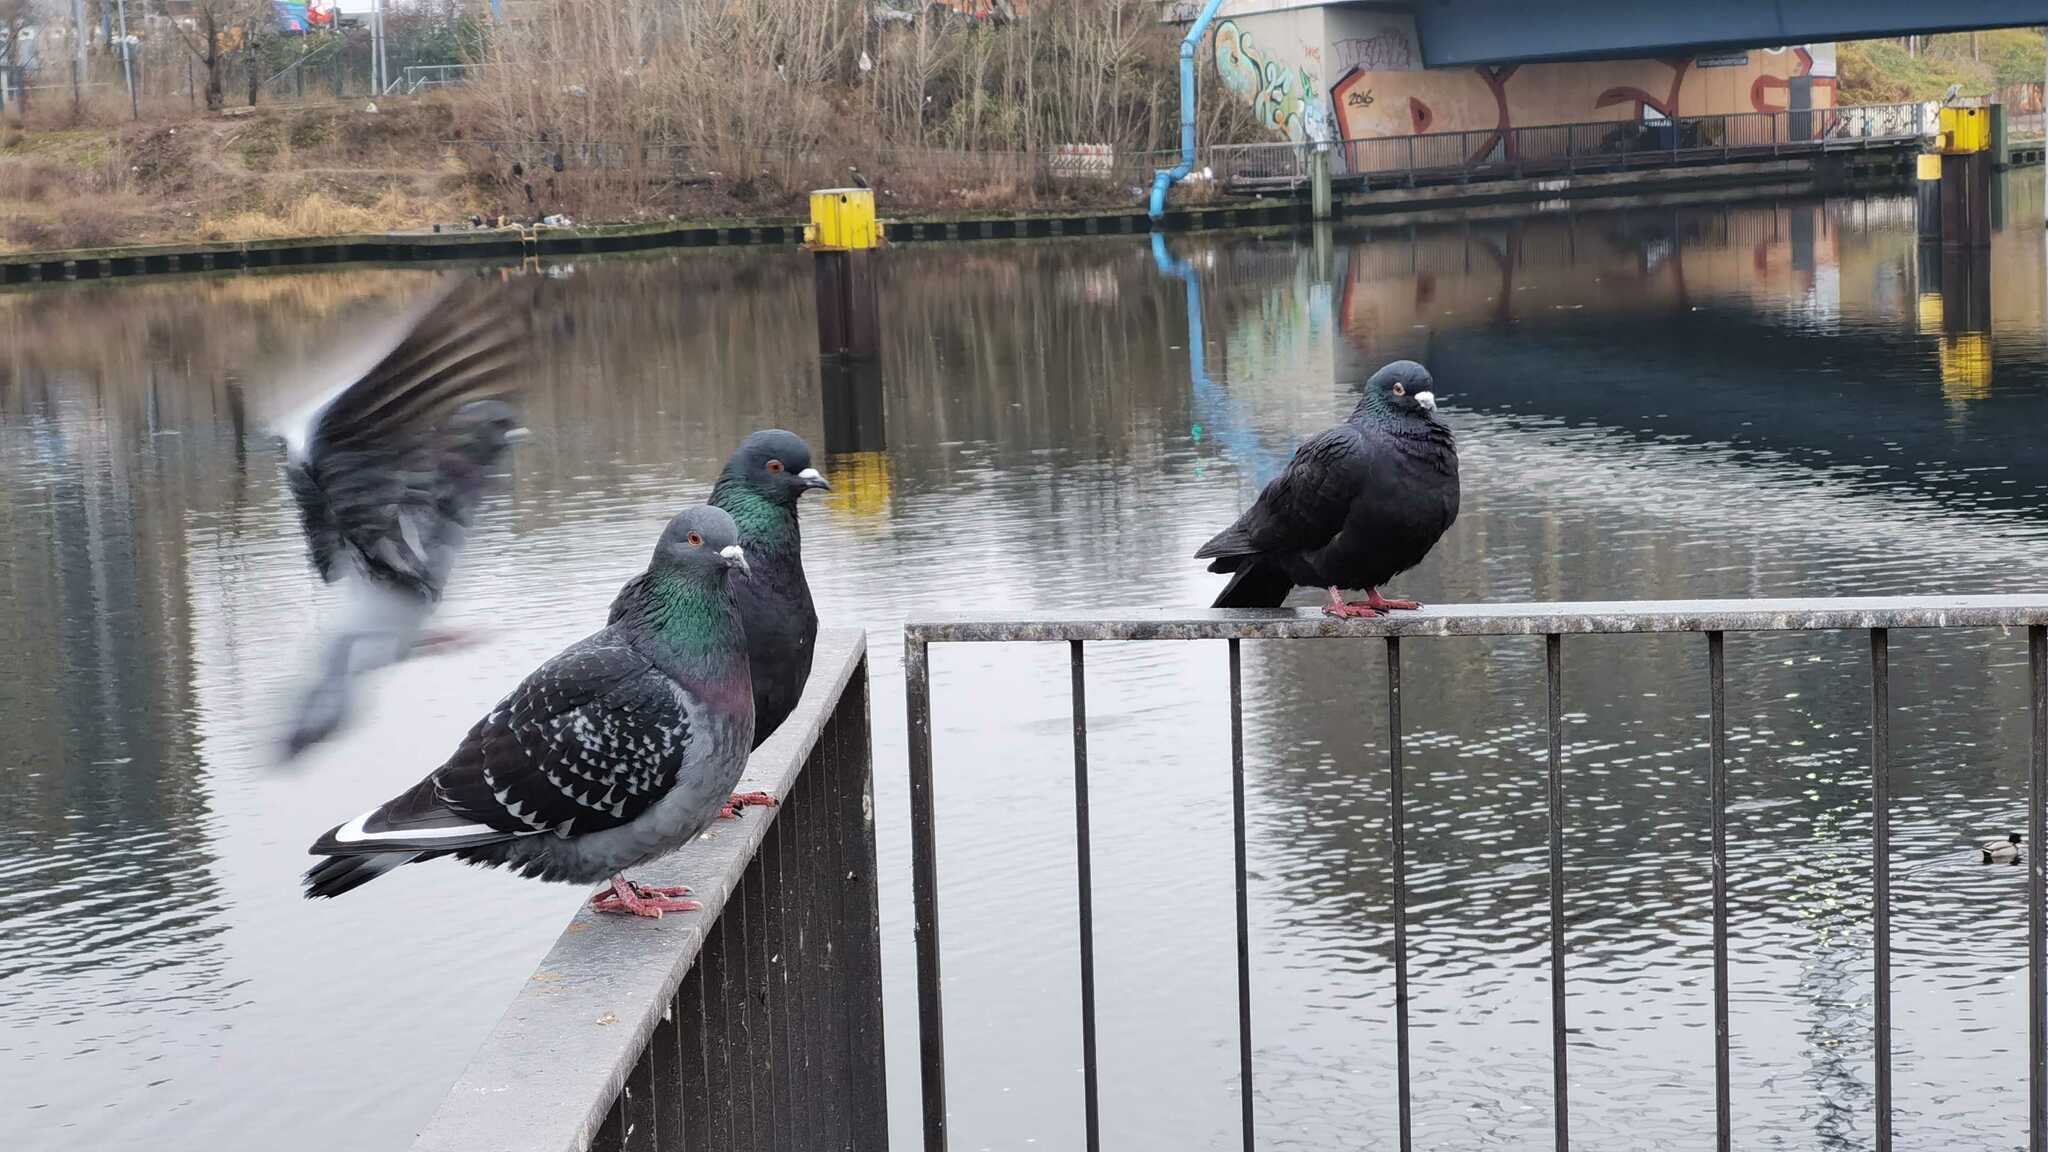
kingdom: Animalia
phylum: Chordata
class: Aves
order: Columbiformes
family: Columbidae
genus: Columba
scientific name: Columba livia
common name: Rock pigeon
